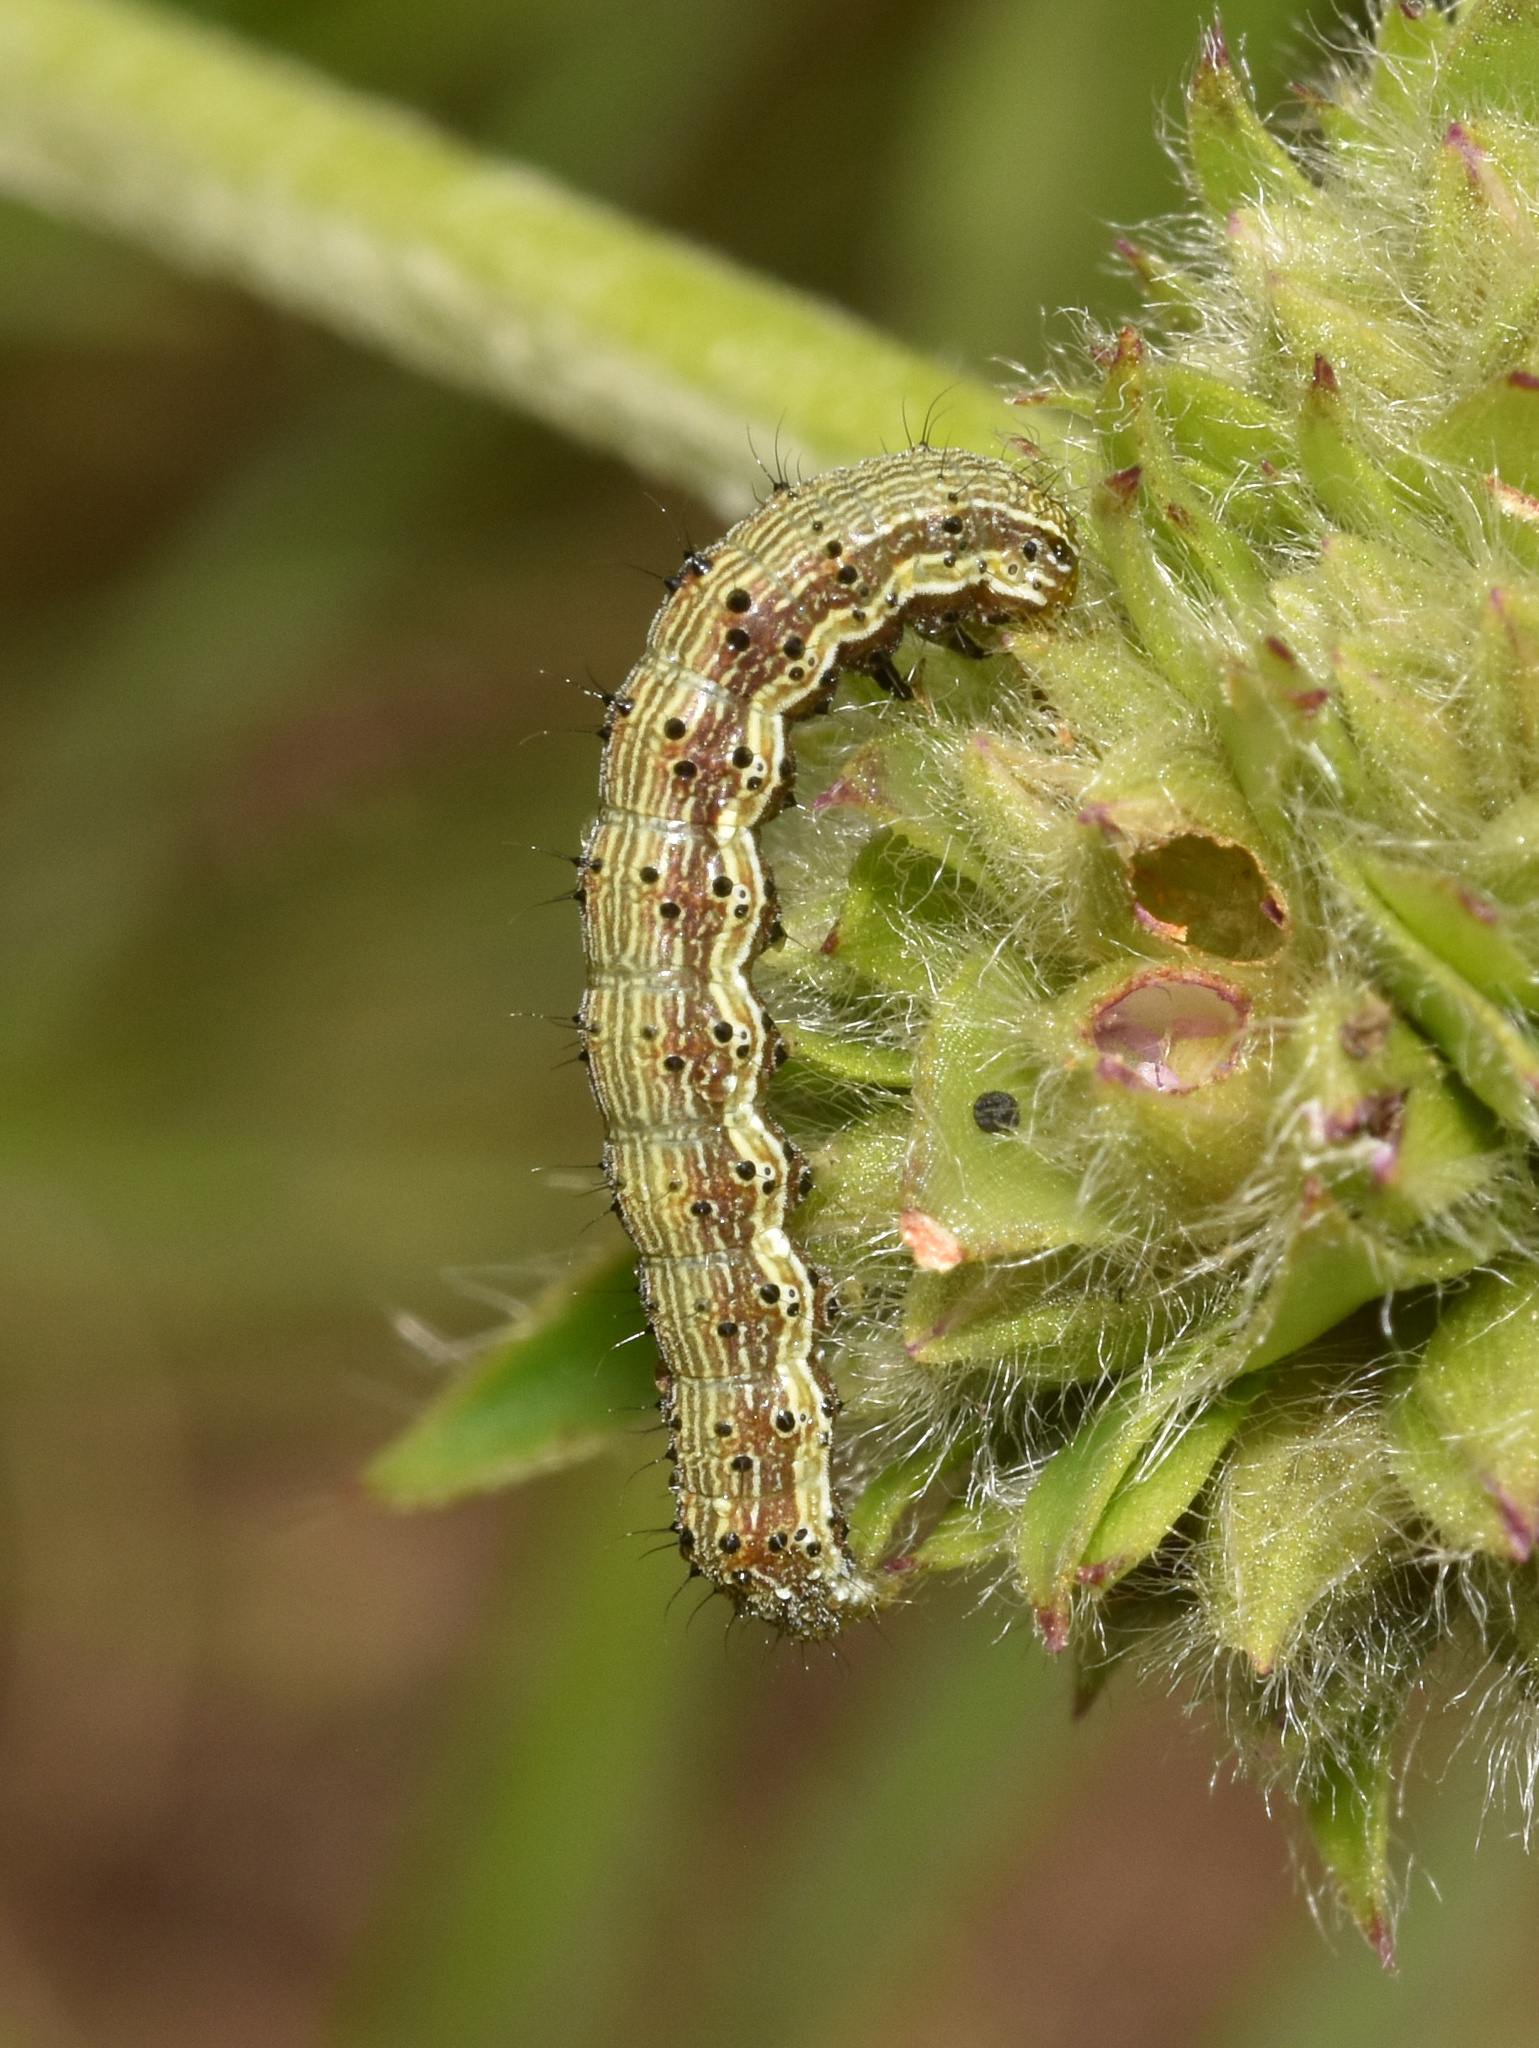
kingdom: Animalia
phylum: Arthropoda
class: Insecta
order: Lepidoptera
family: Noctuidae
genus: Helicoverpa
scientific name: Helicoverpa armigera
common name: Cotton bollworm
